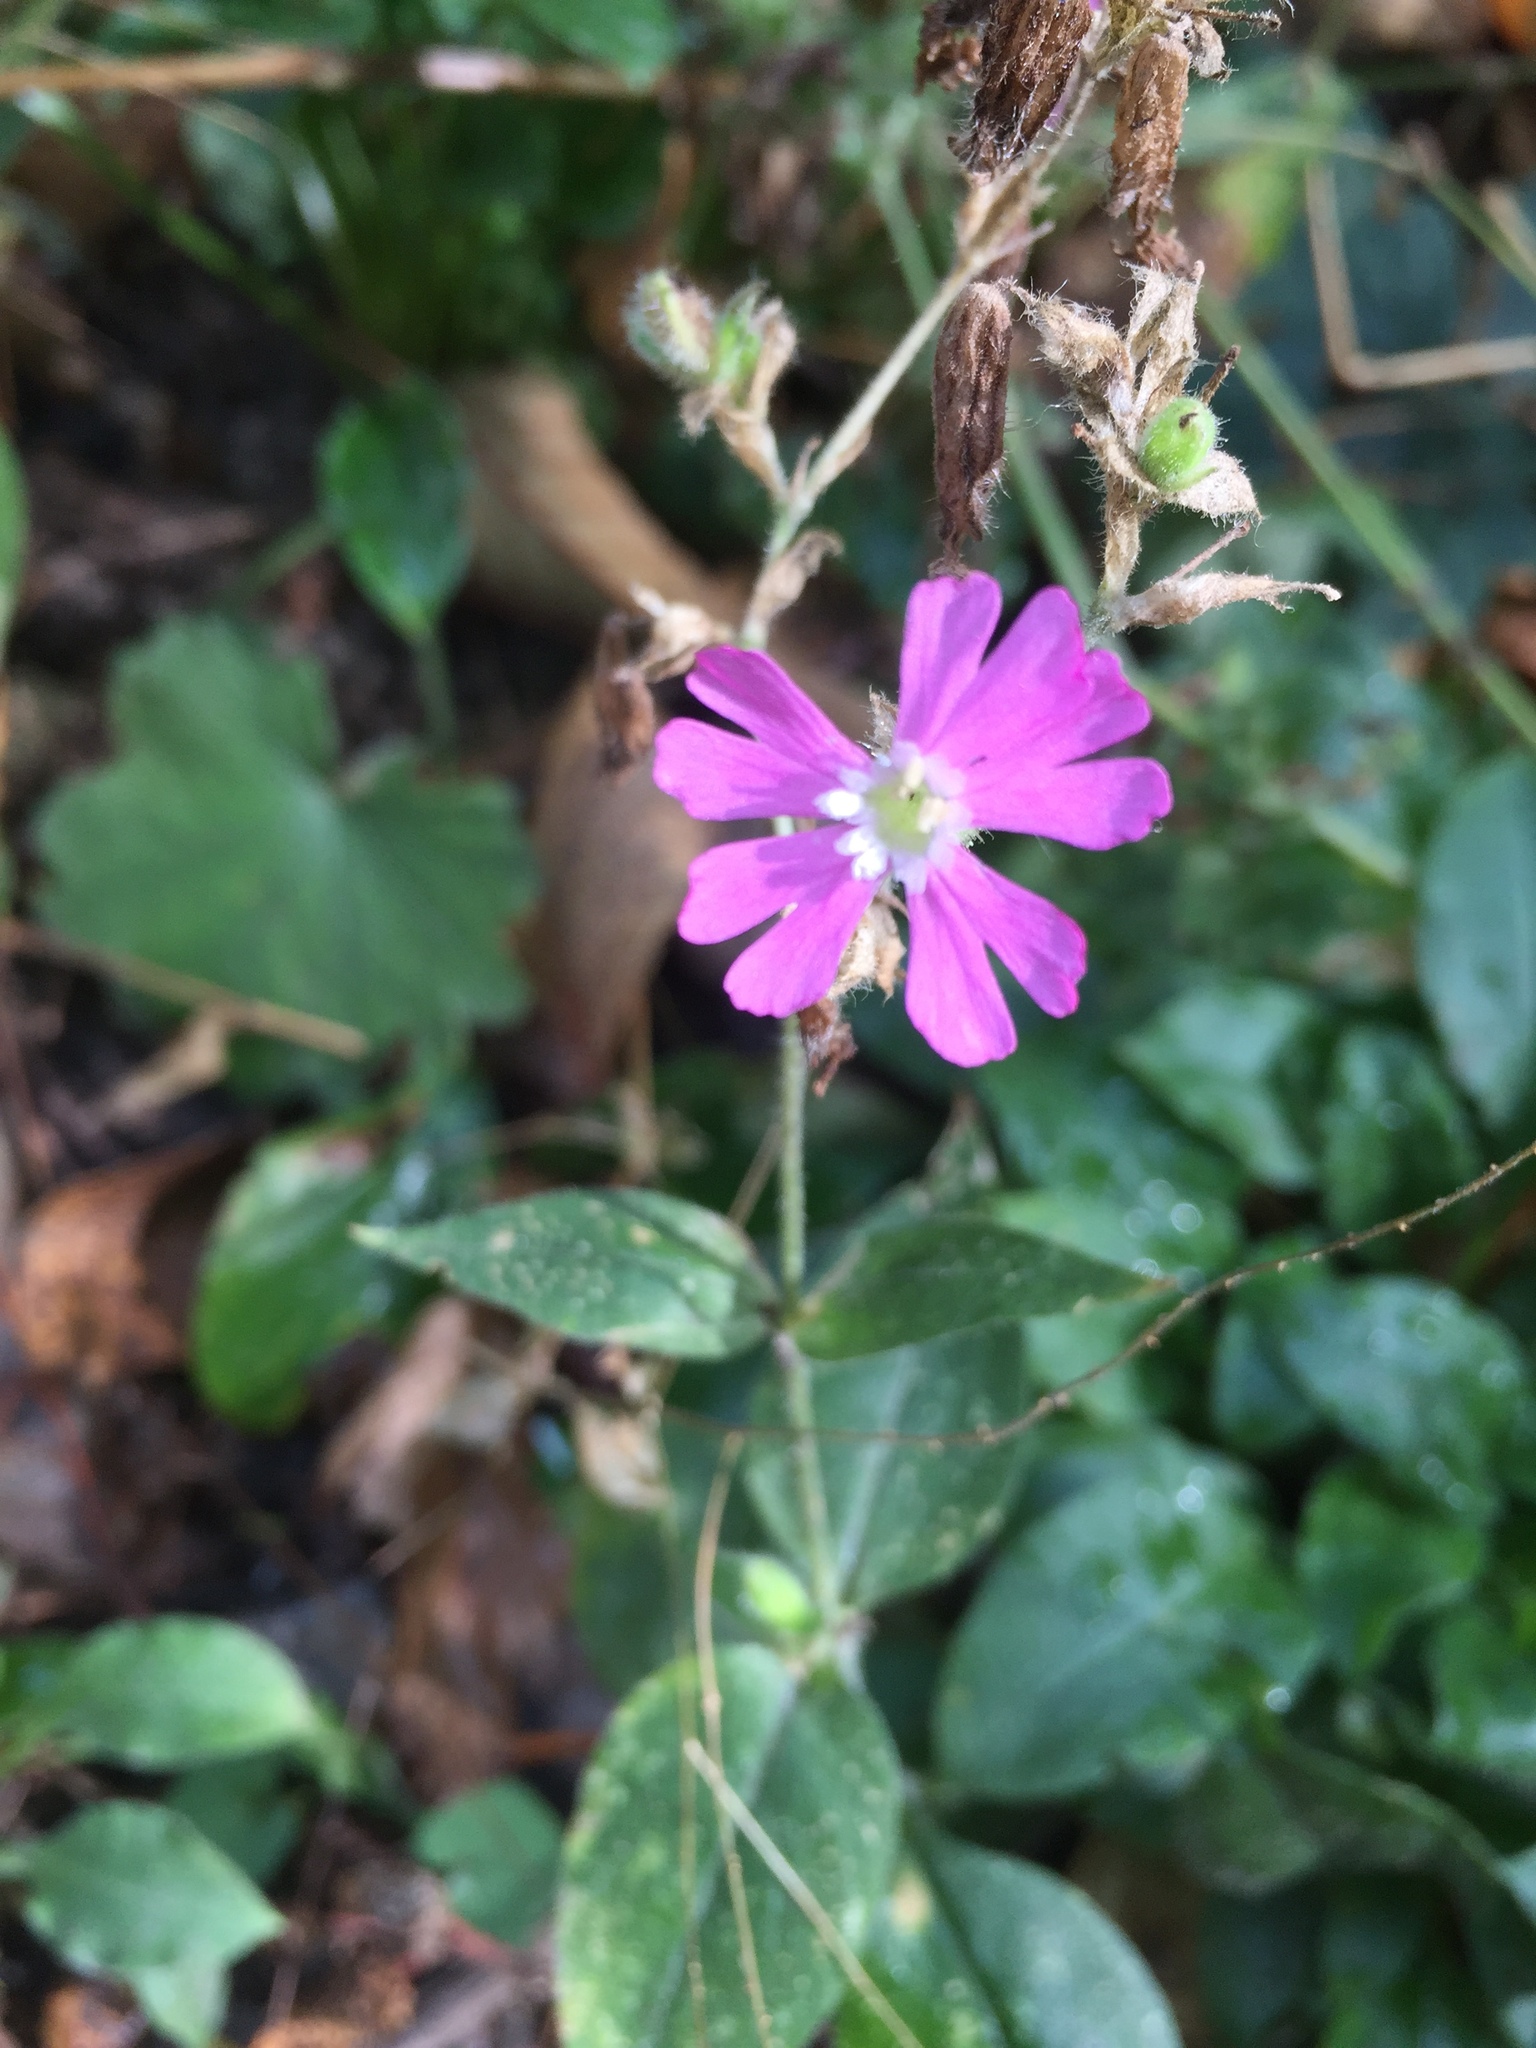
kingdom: Plantae
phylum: Tracheophyta
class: Magnoliopsida
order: Caryophyllales
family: Caryophyllaceae
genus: Silene
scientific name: Silene dioica
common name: Red campion
